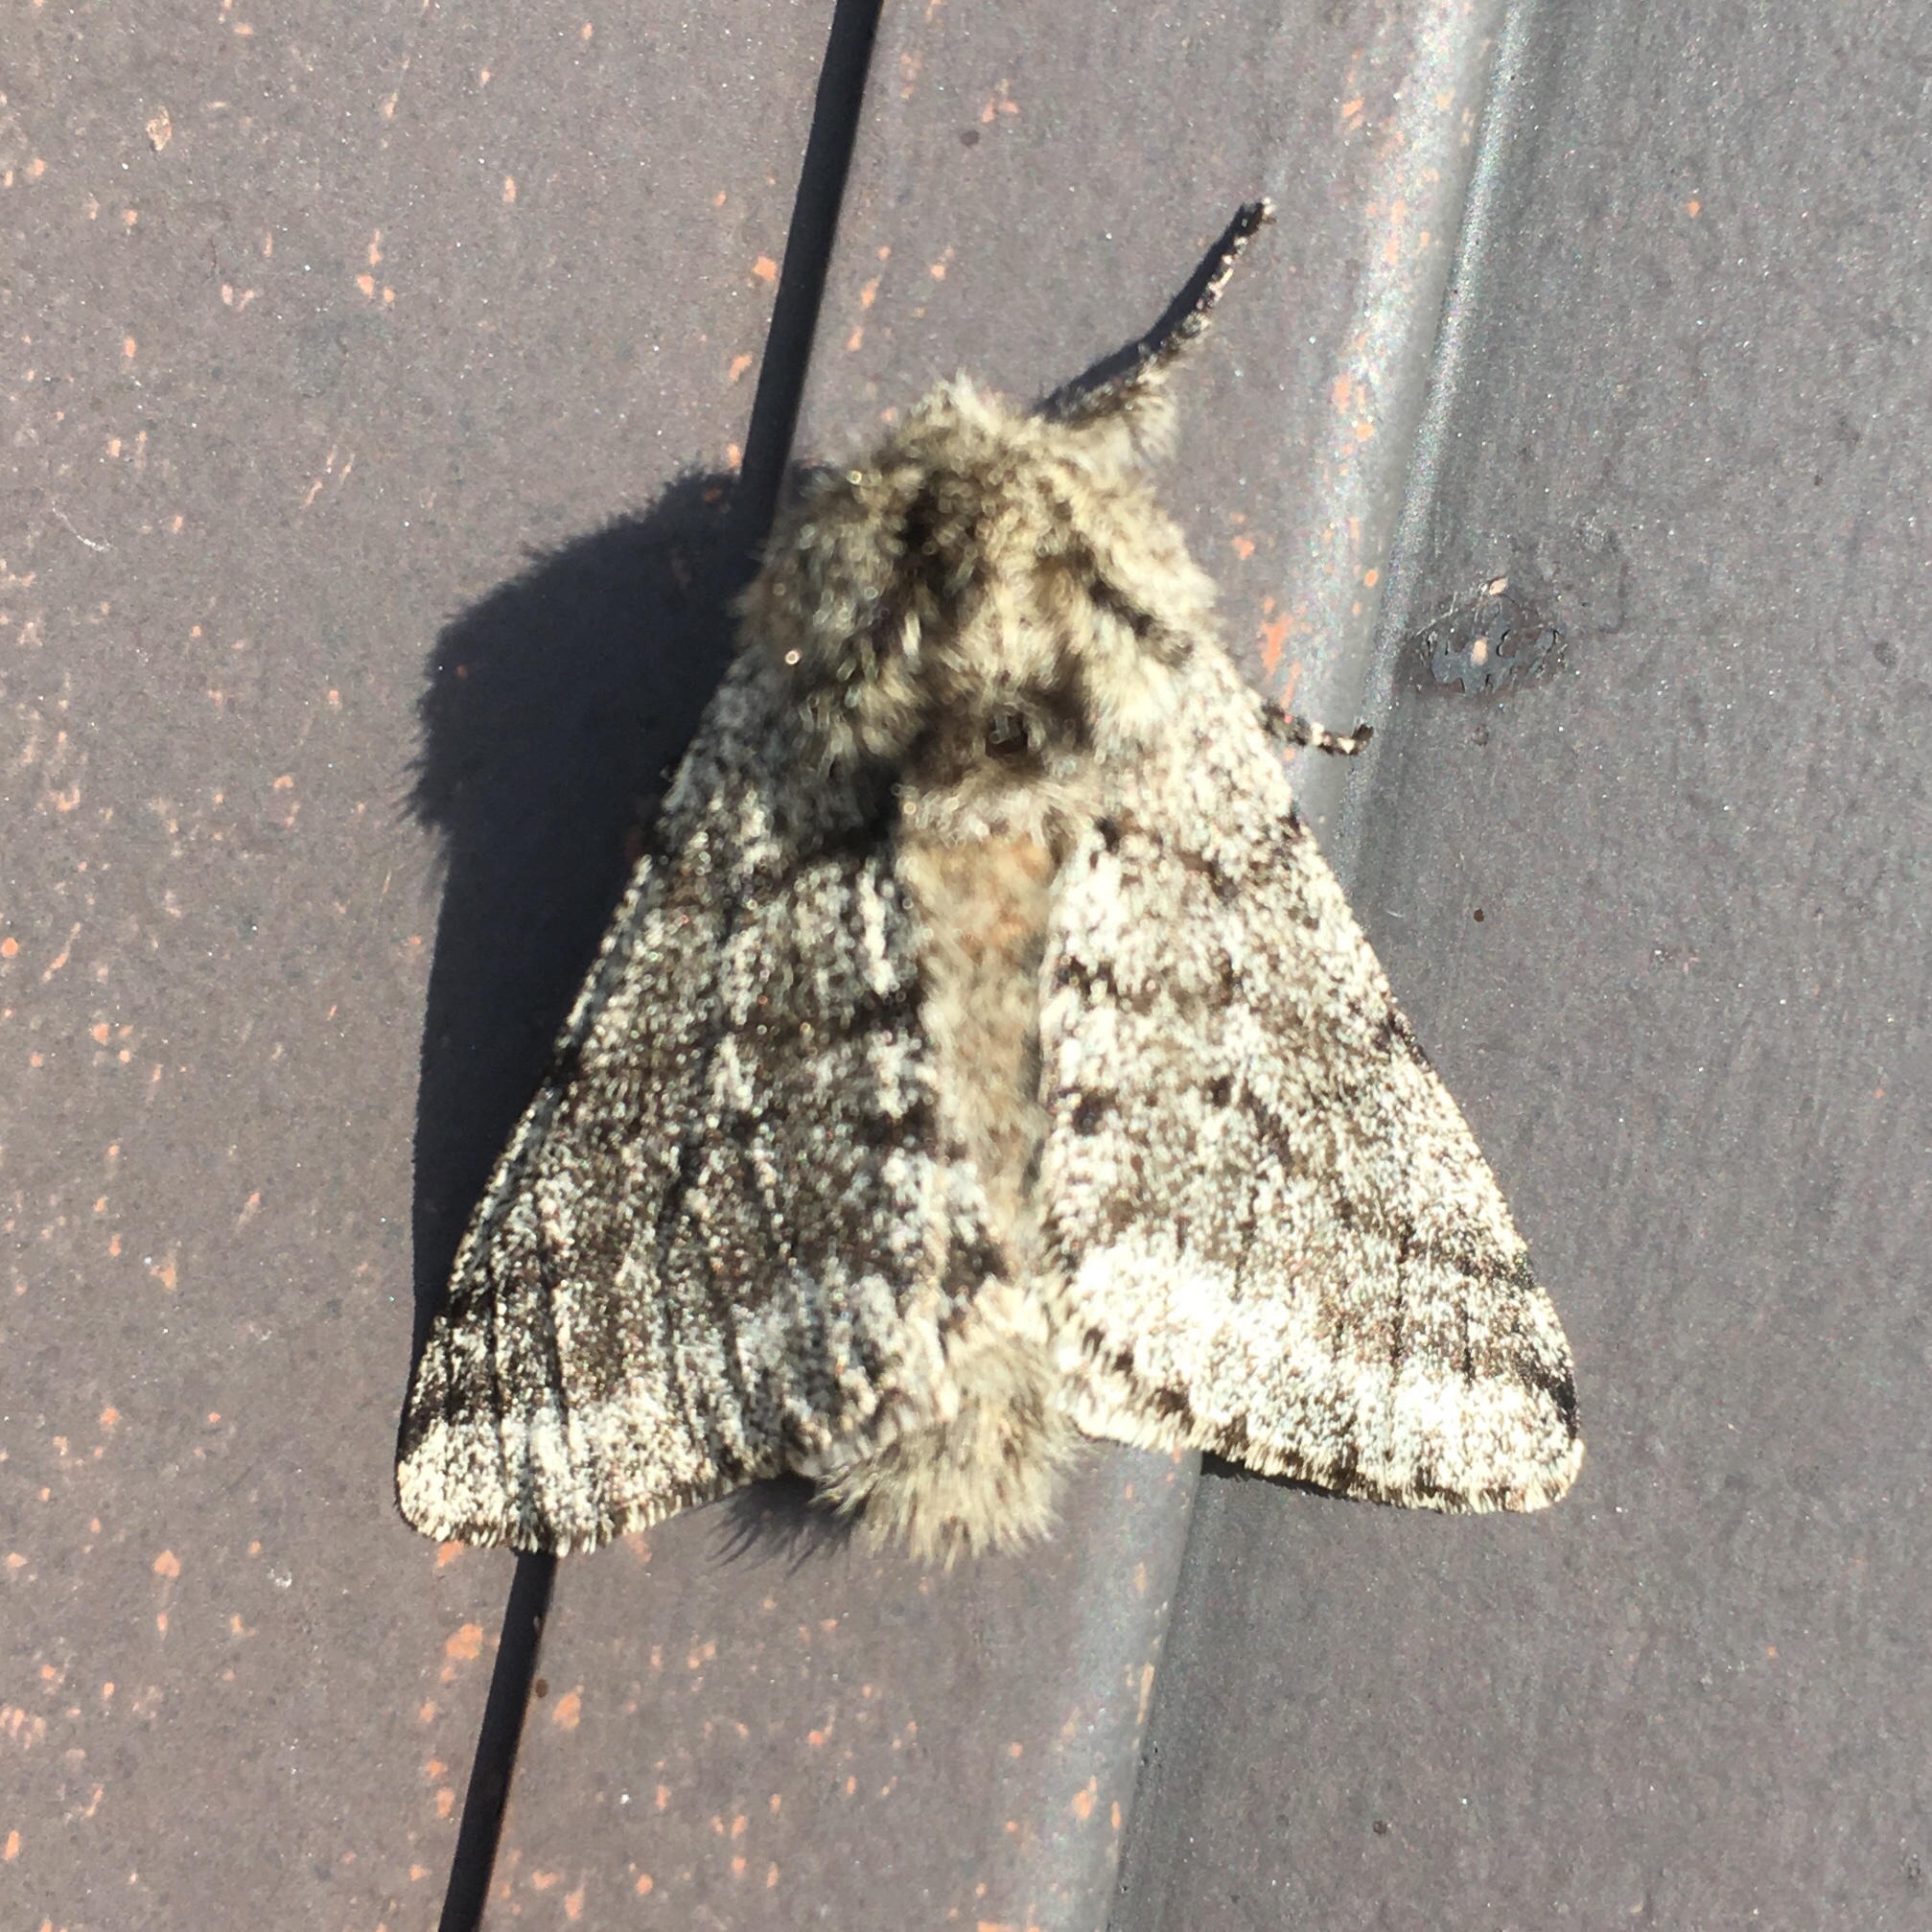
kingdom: Animalia
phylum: Arthropoda
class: Insecta
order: Lepidoptera
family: Geometridae
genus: Lycia
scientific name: Lycia ursaria
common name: Stout spanworm
